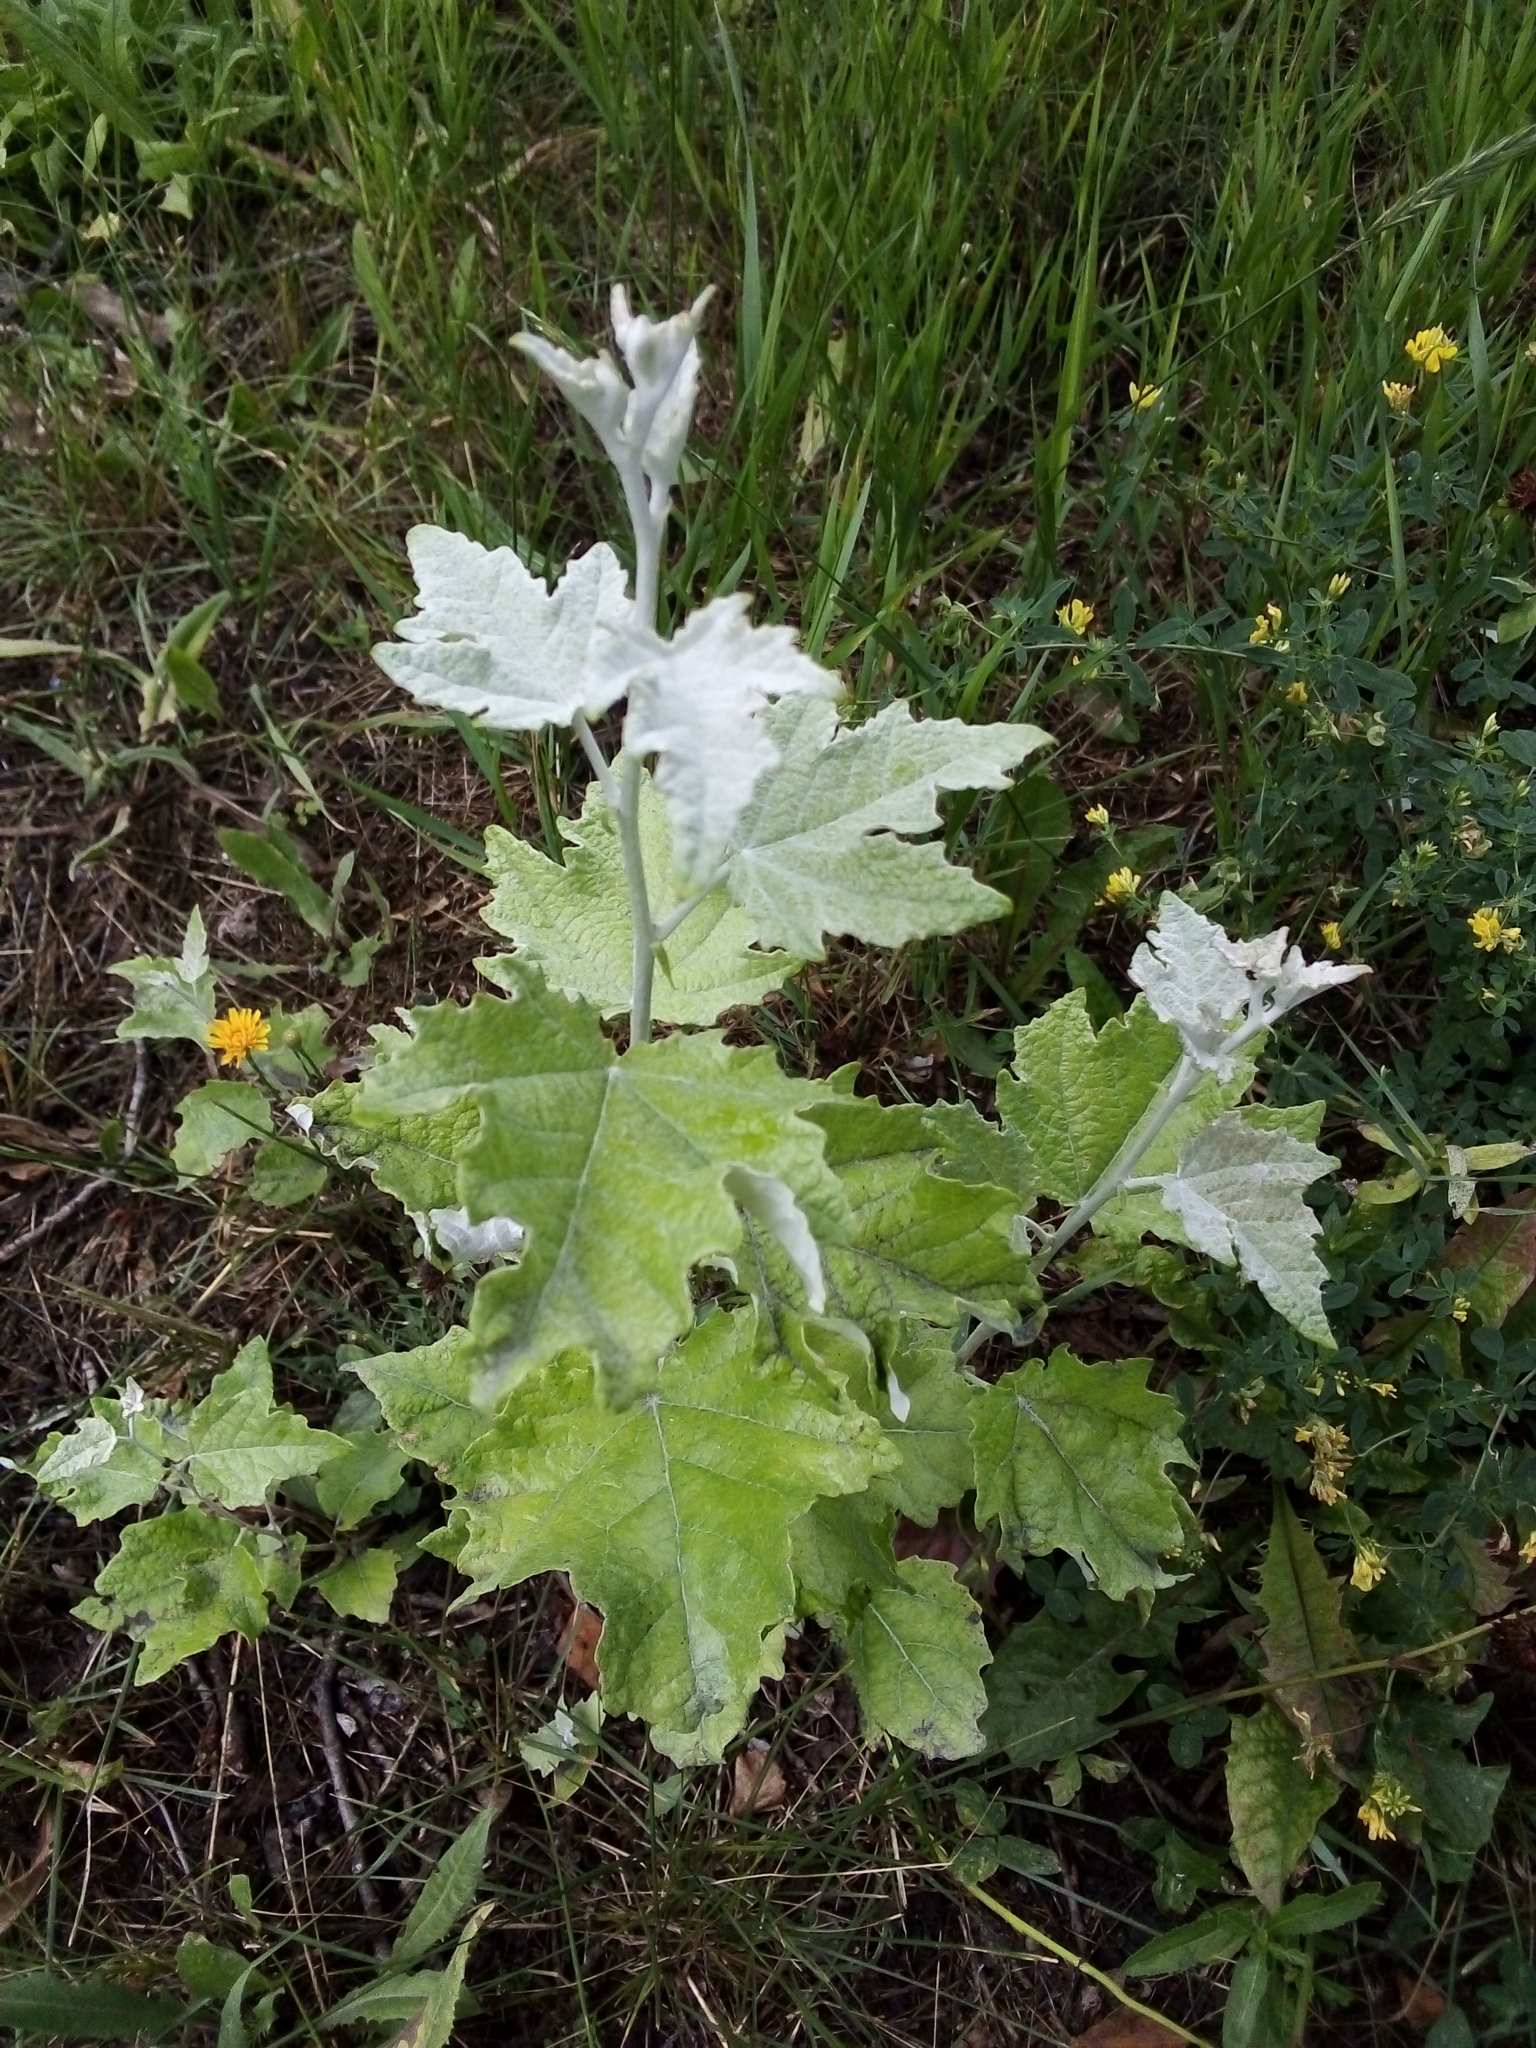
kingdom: Plantae
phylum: Tracheophyta
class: Magnoliopsida
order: Malpighiales
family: Salicaceae
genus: Populus
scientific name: Populus alba
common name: White poplar
